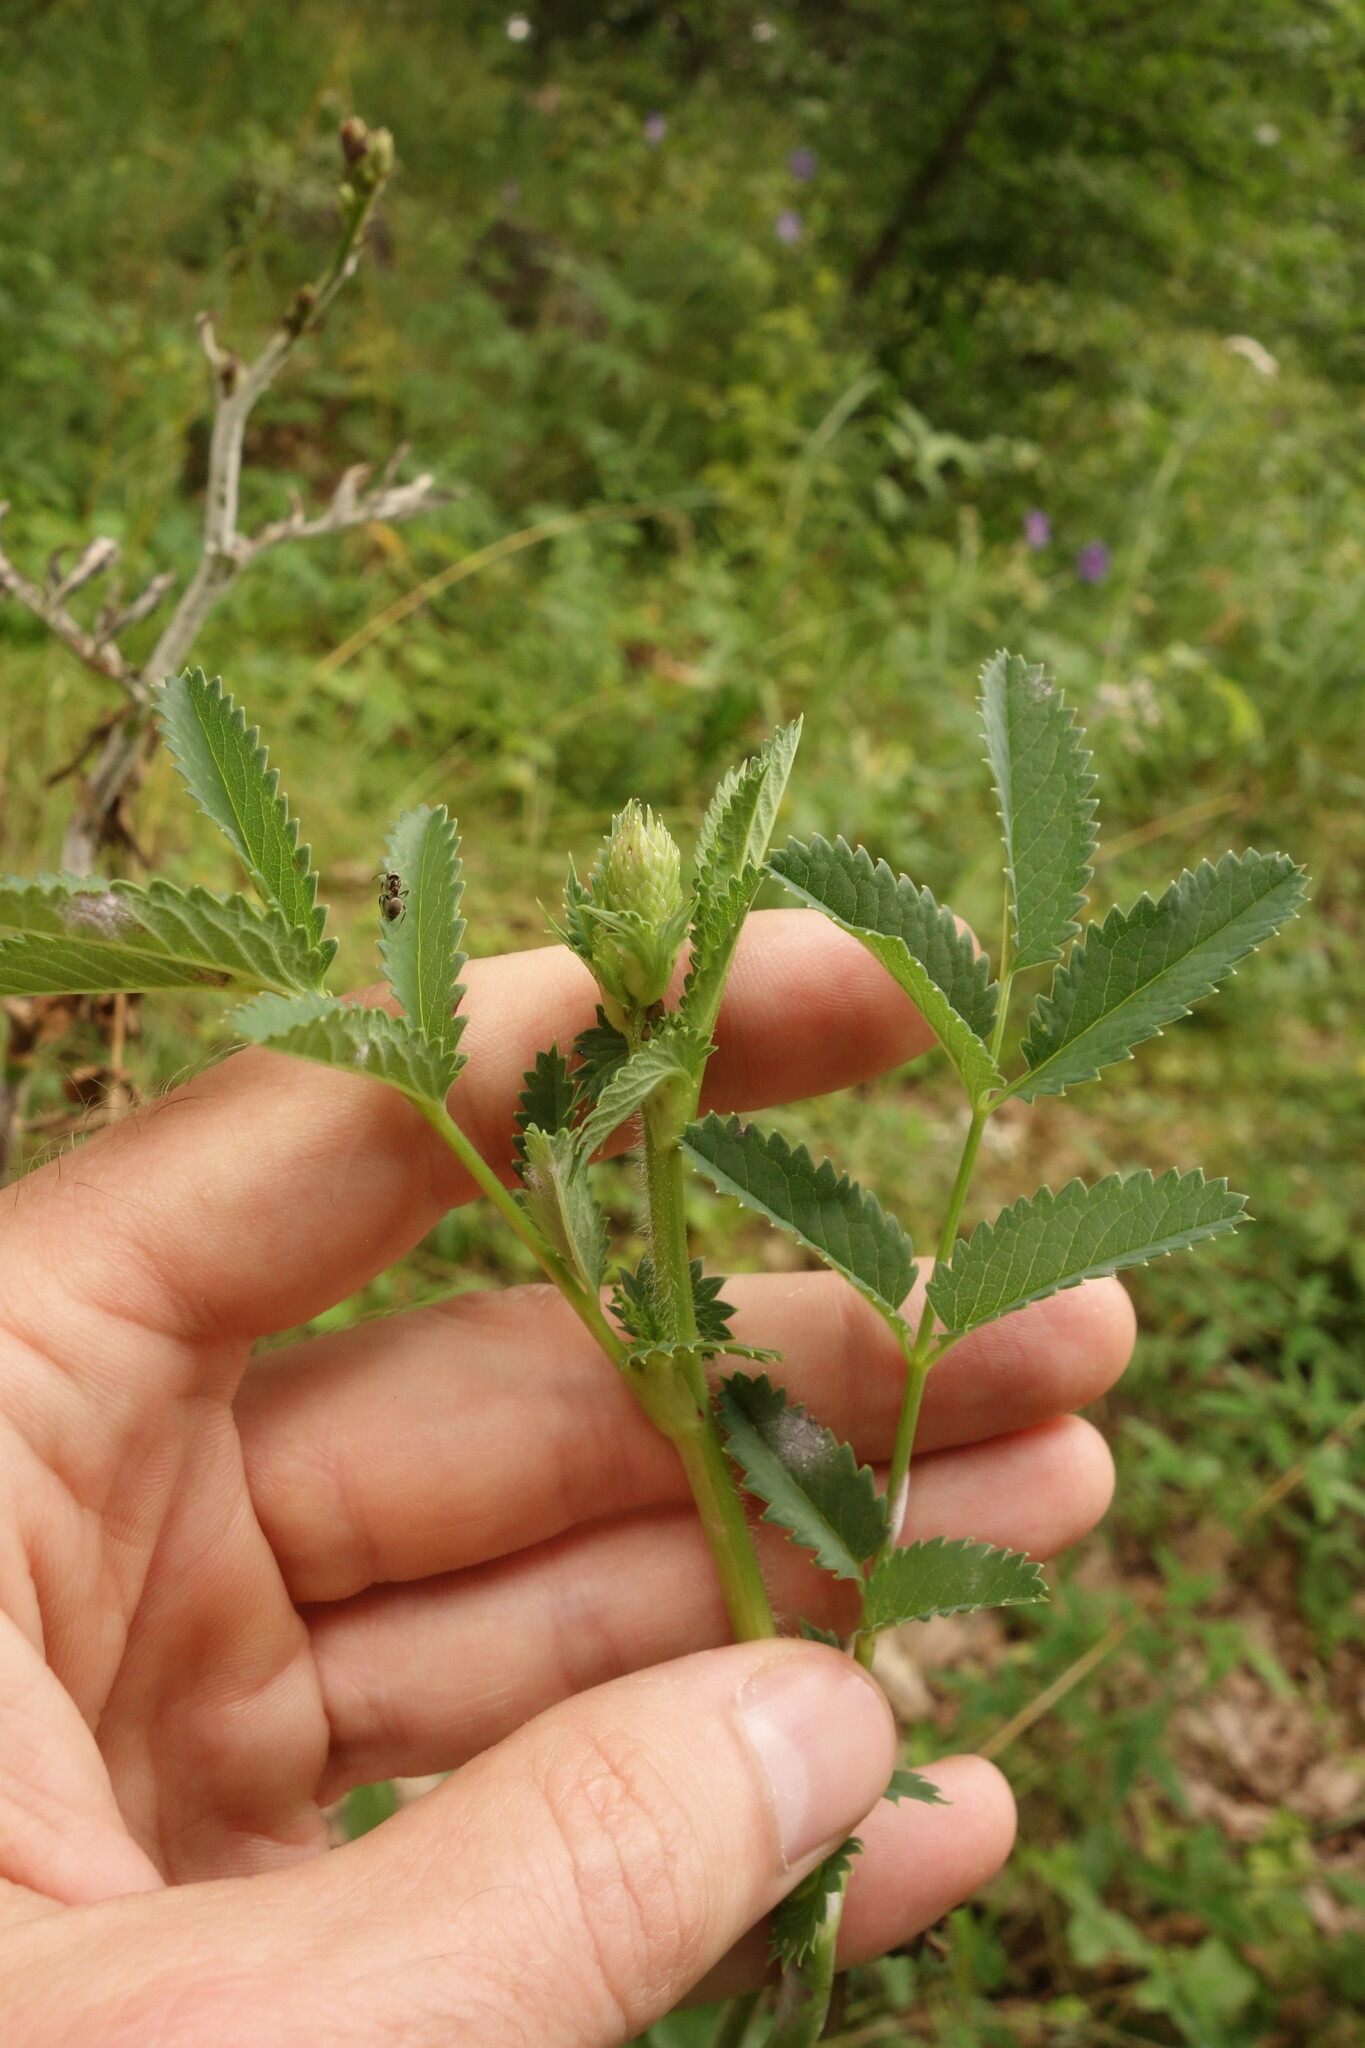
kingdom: Plantae
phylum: Tracheophyta
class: Magnoliopsida
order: Rosales
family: Rosaceae
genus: Sanguisorba
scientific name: Sanguisorba officinalis
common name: Great burnet
